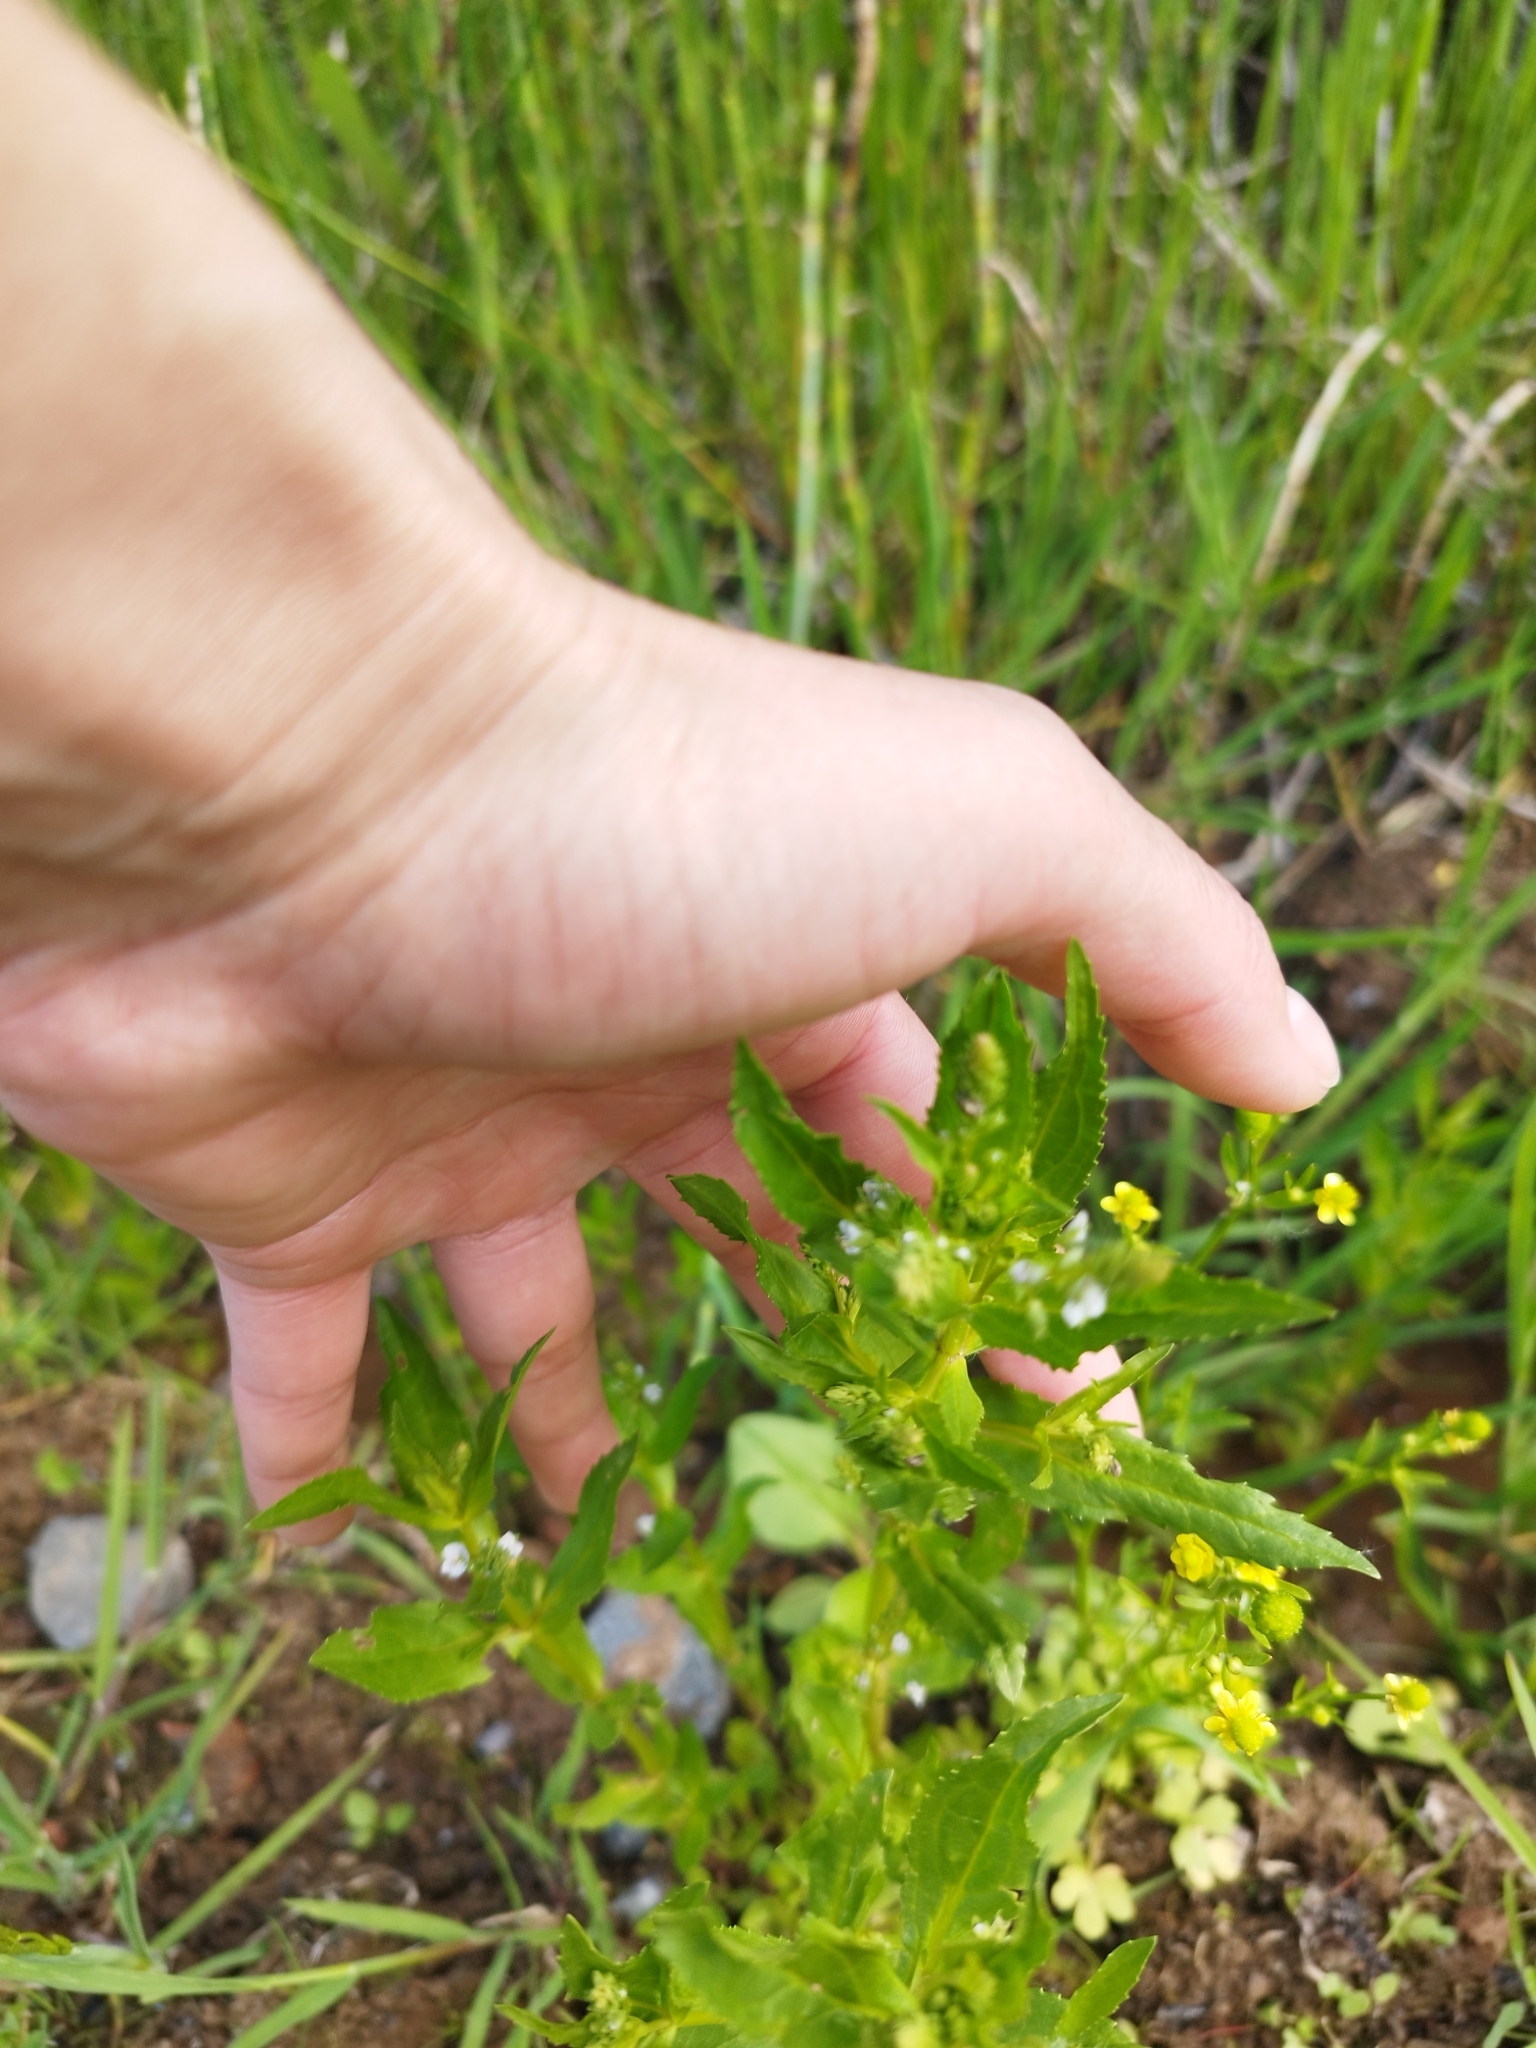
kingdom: Plantae
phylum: Tracheophyta
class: Magnoliopsida
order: Brassicales
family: Brassicaceae
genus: Thlaspi
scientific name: Thlaspi arvense
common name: Field pennycress
